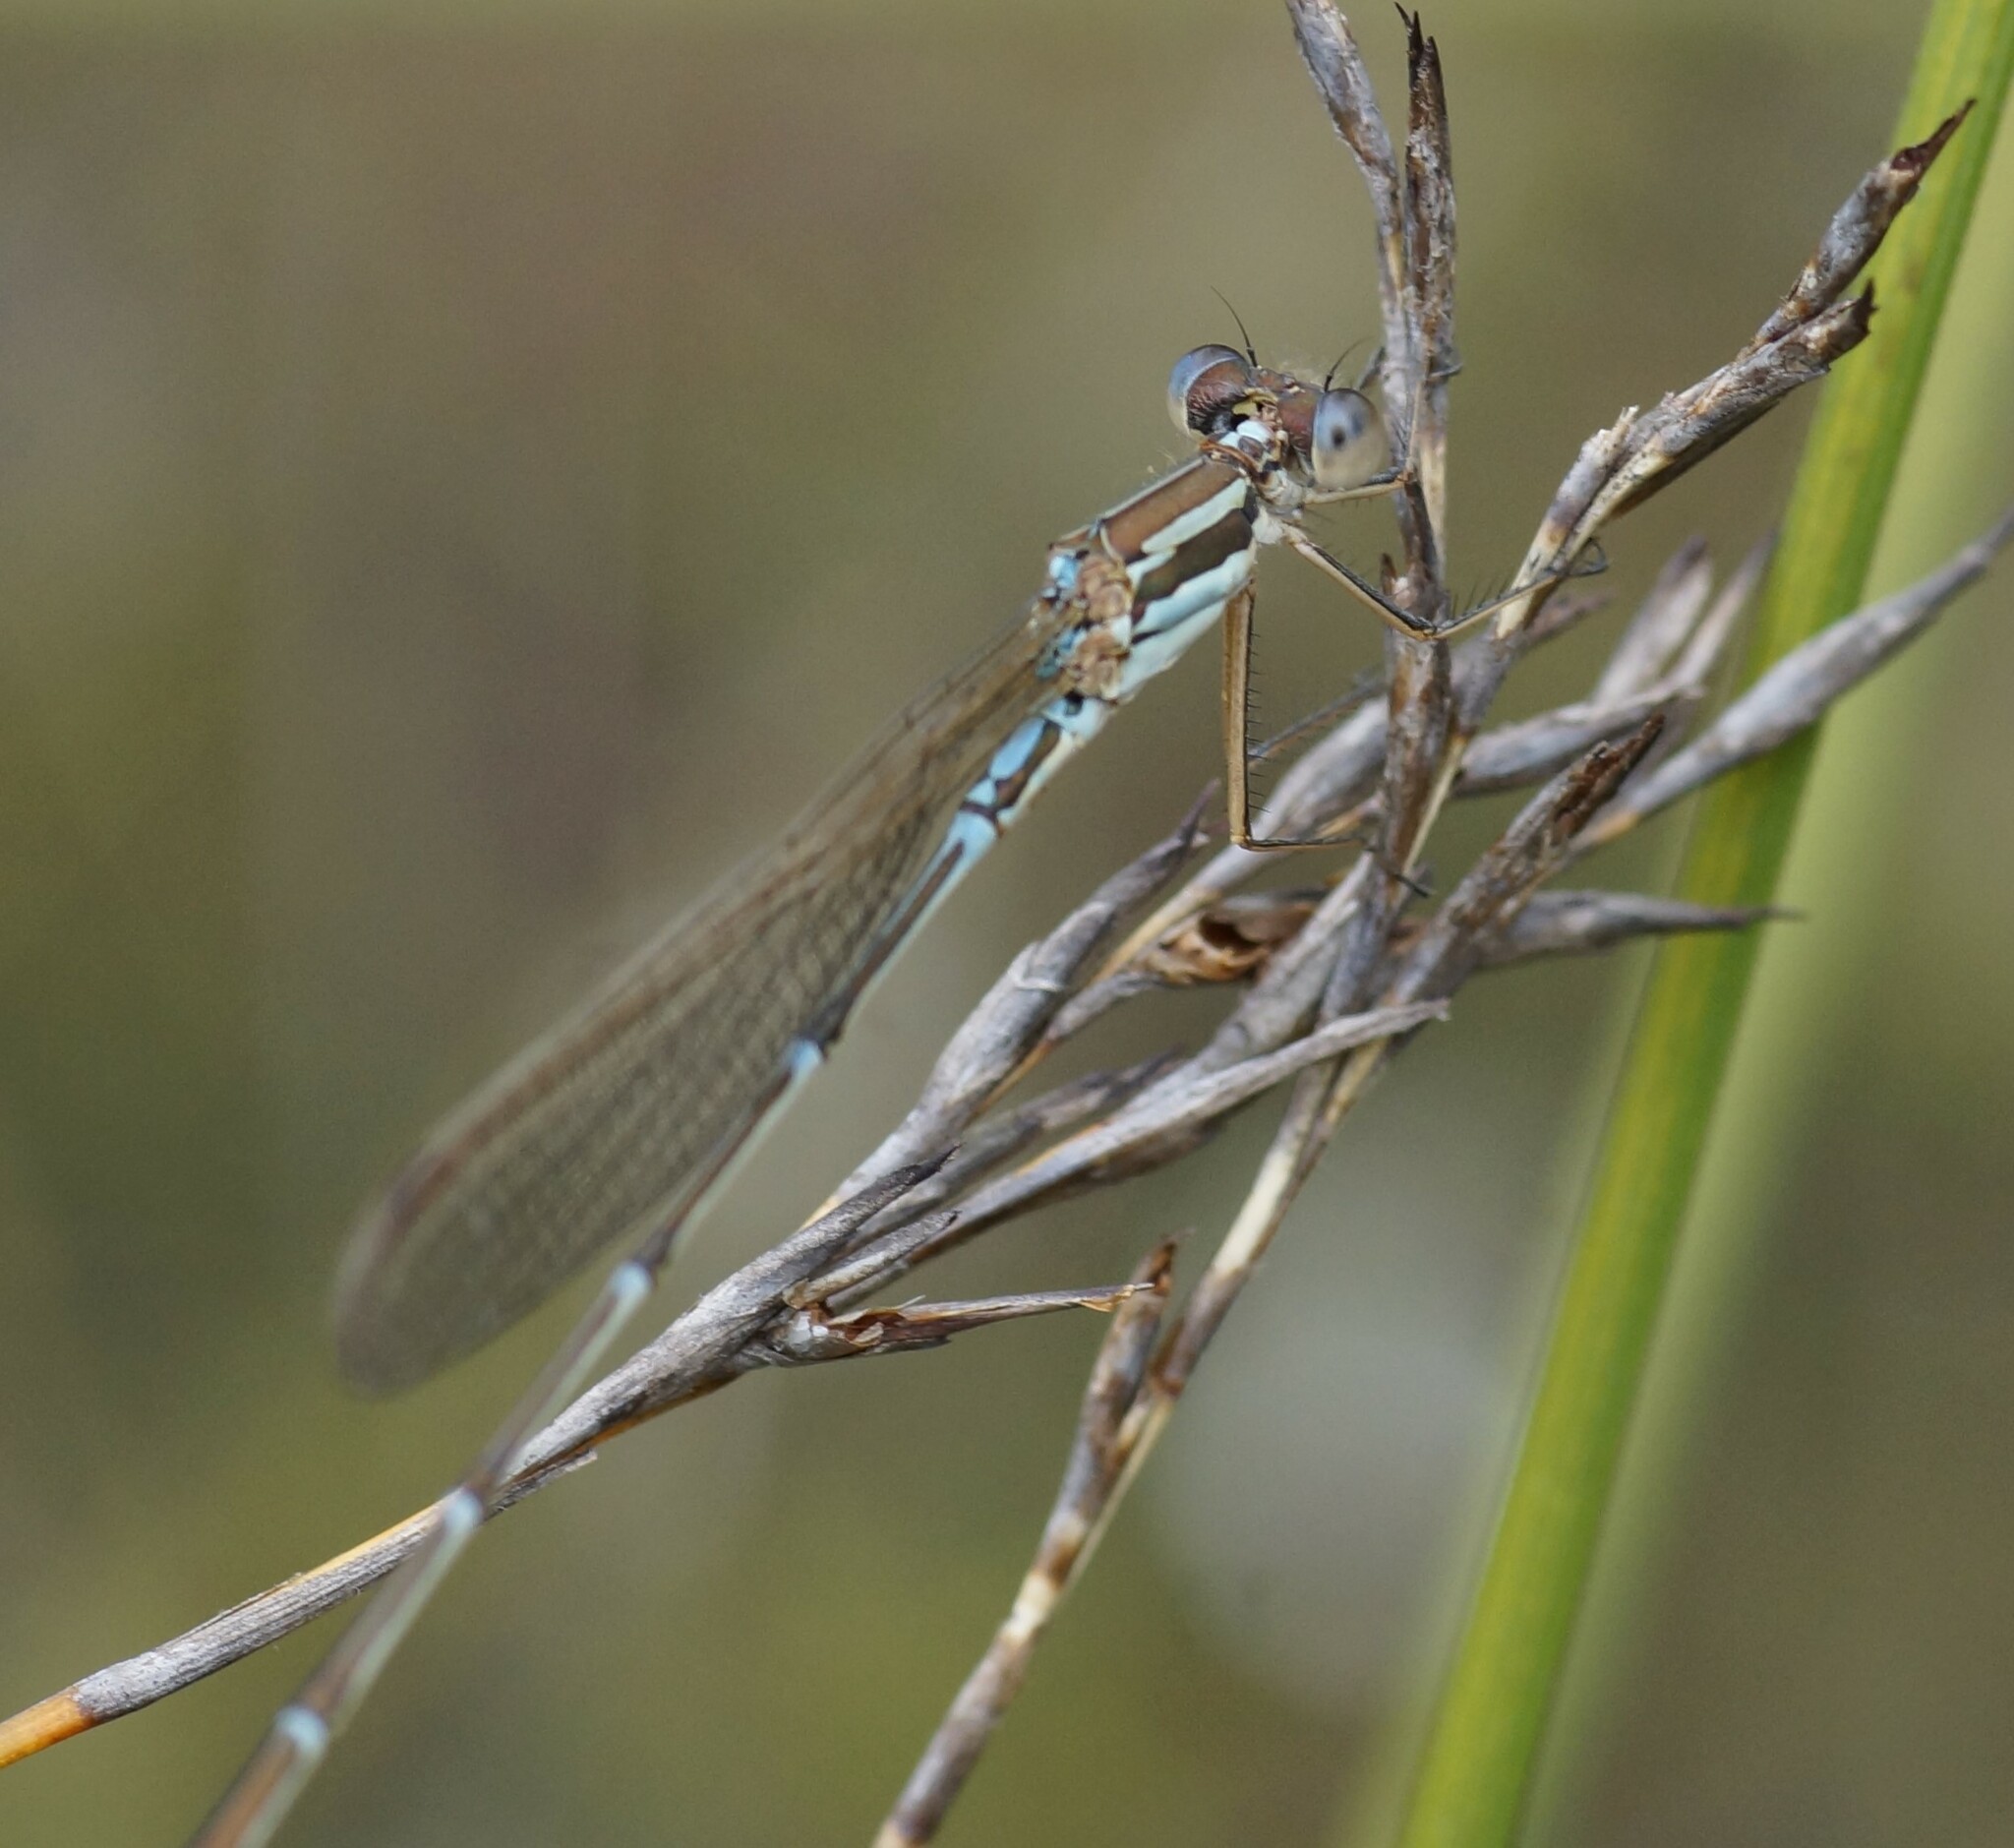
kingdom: Animalia
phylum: Arthropoda
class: Insecta
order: Odonata
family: Lestidae
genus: Austrolestes
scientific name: Austrolestes analis
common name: Slender ringtail
